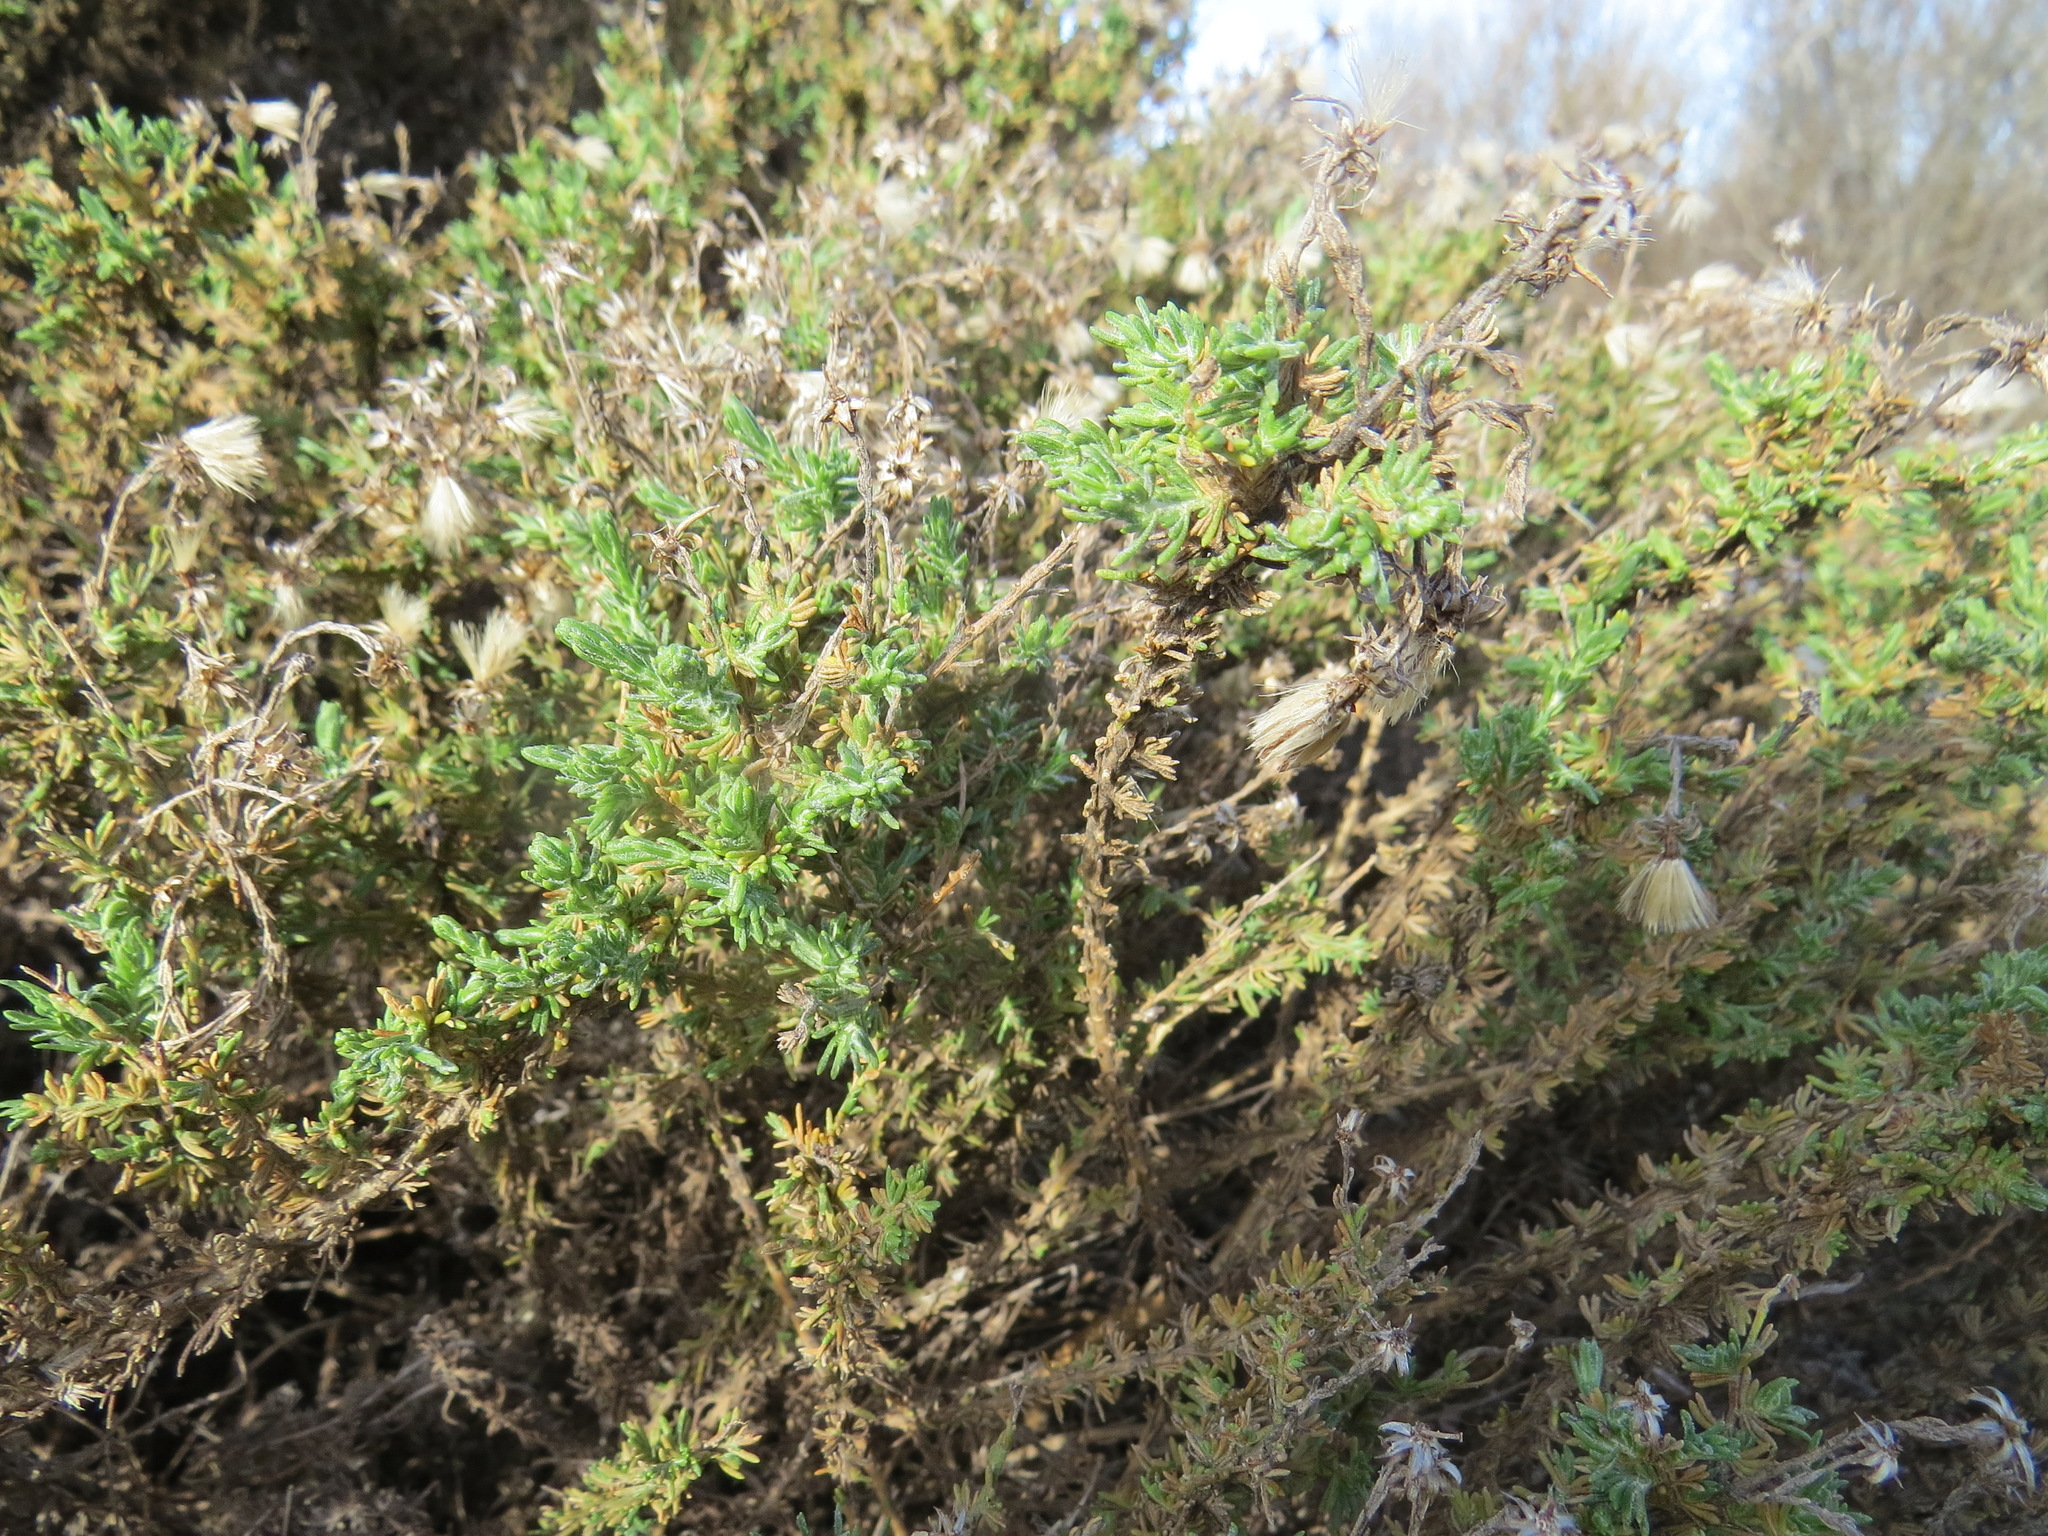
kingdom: Plantae
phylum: Tracheophyta
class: Magnoliopsida
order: Asterales
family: Asteraceae
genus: Ericameria
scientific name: Ericameria ericoides
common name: California goldenbush
